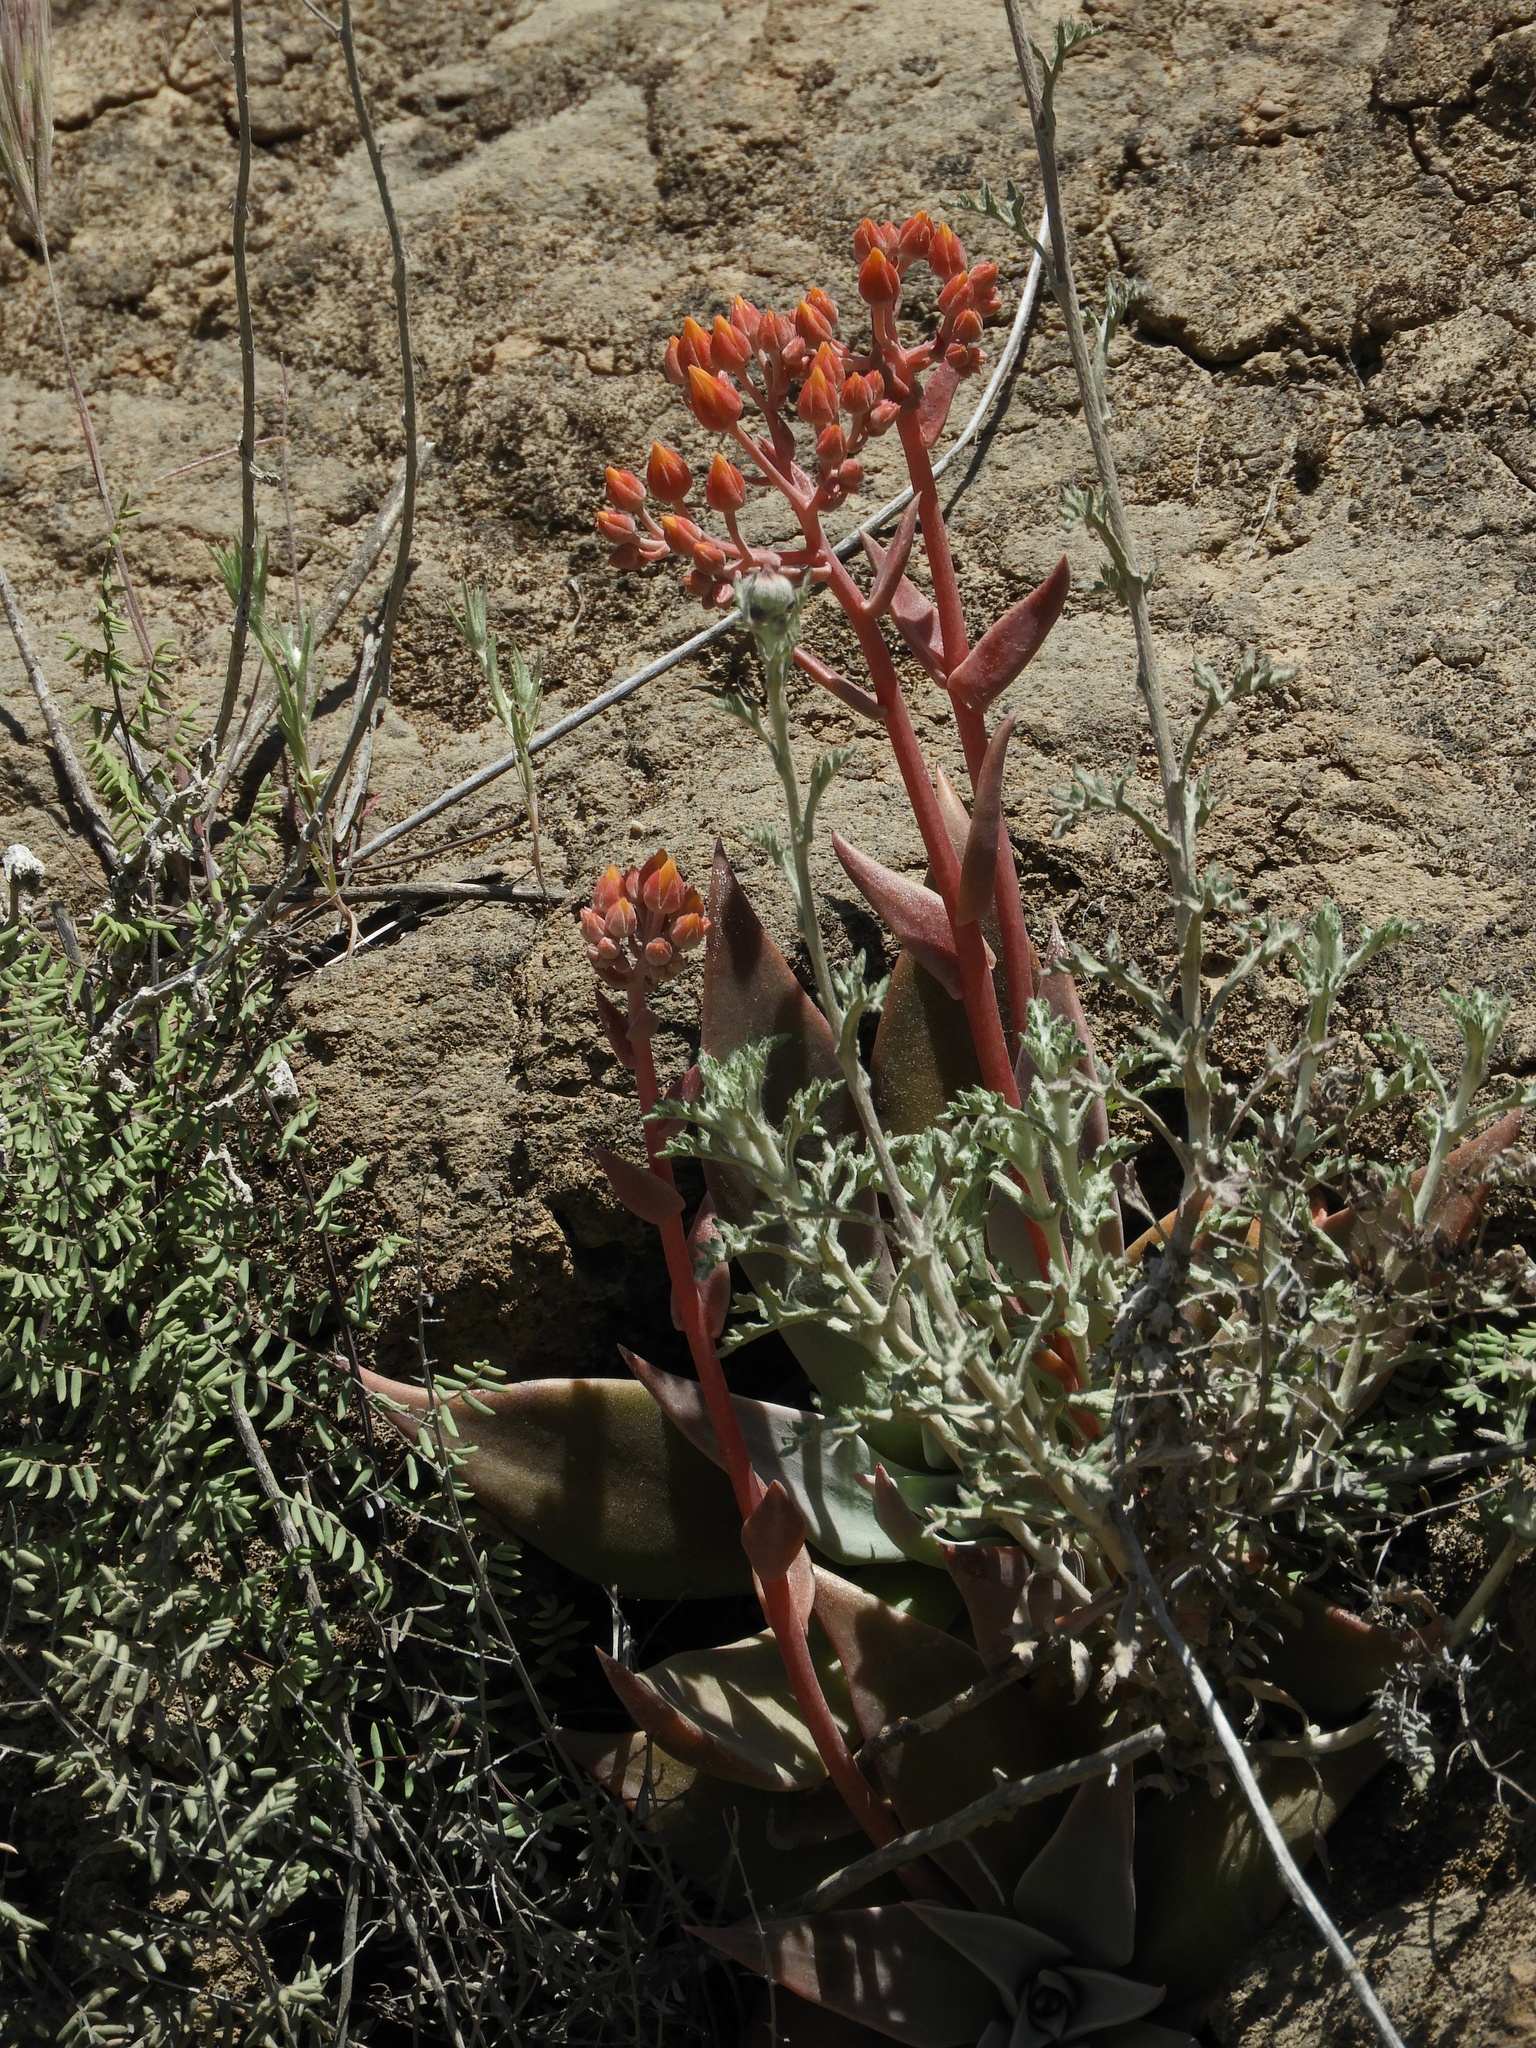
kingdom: Plantae
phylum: Tracheophyta
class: Magnoliopsida
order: Saxifragales
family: Crassulaceae
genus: Dudleya
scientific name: Dudleya cymosa
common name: Canyon dudleya
